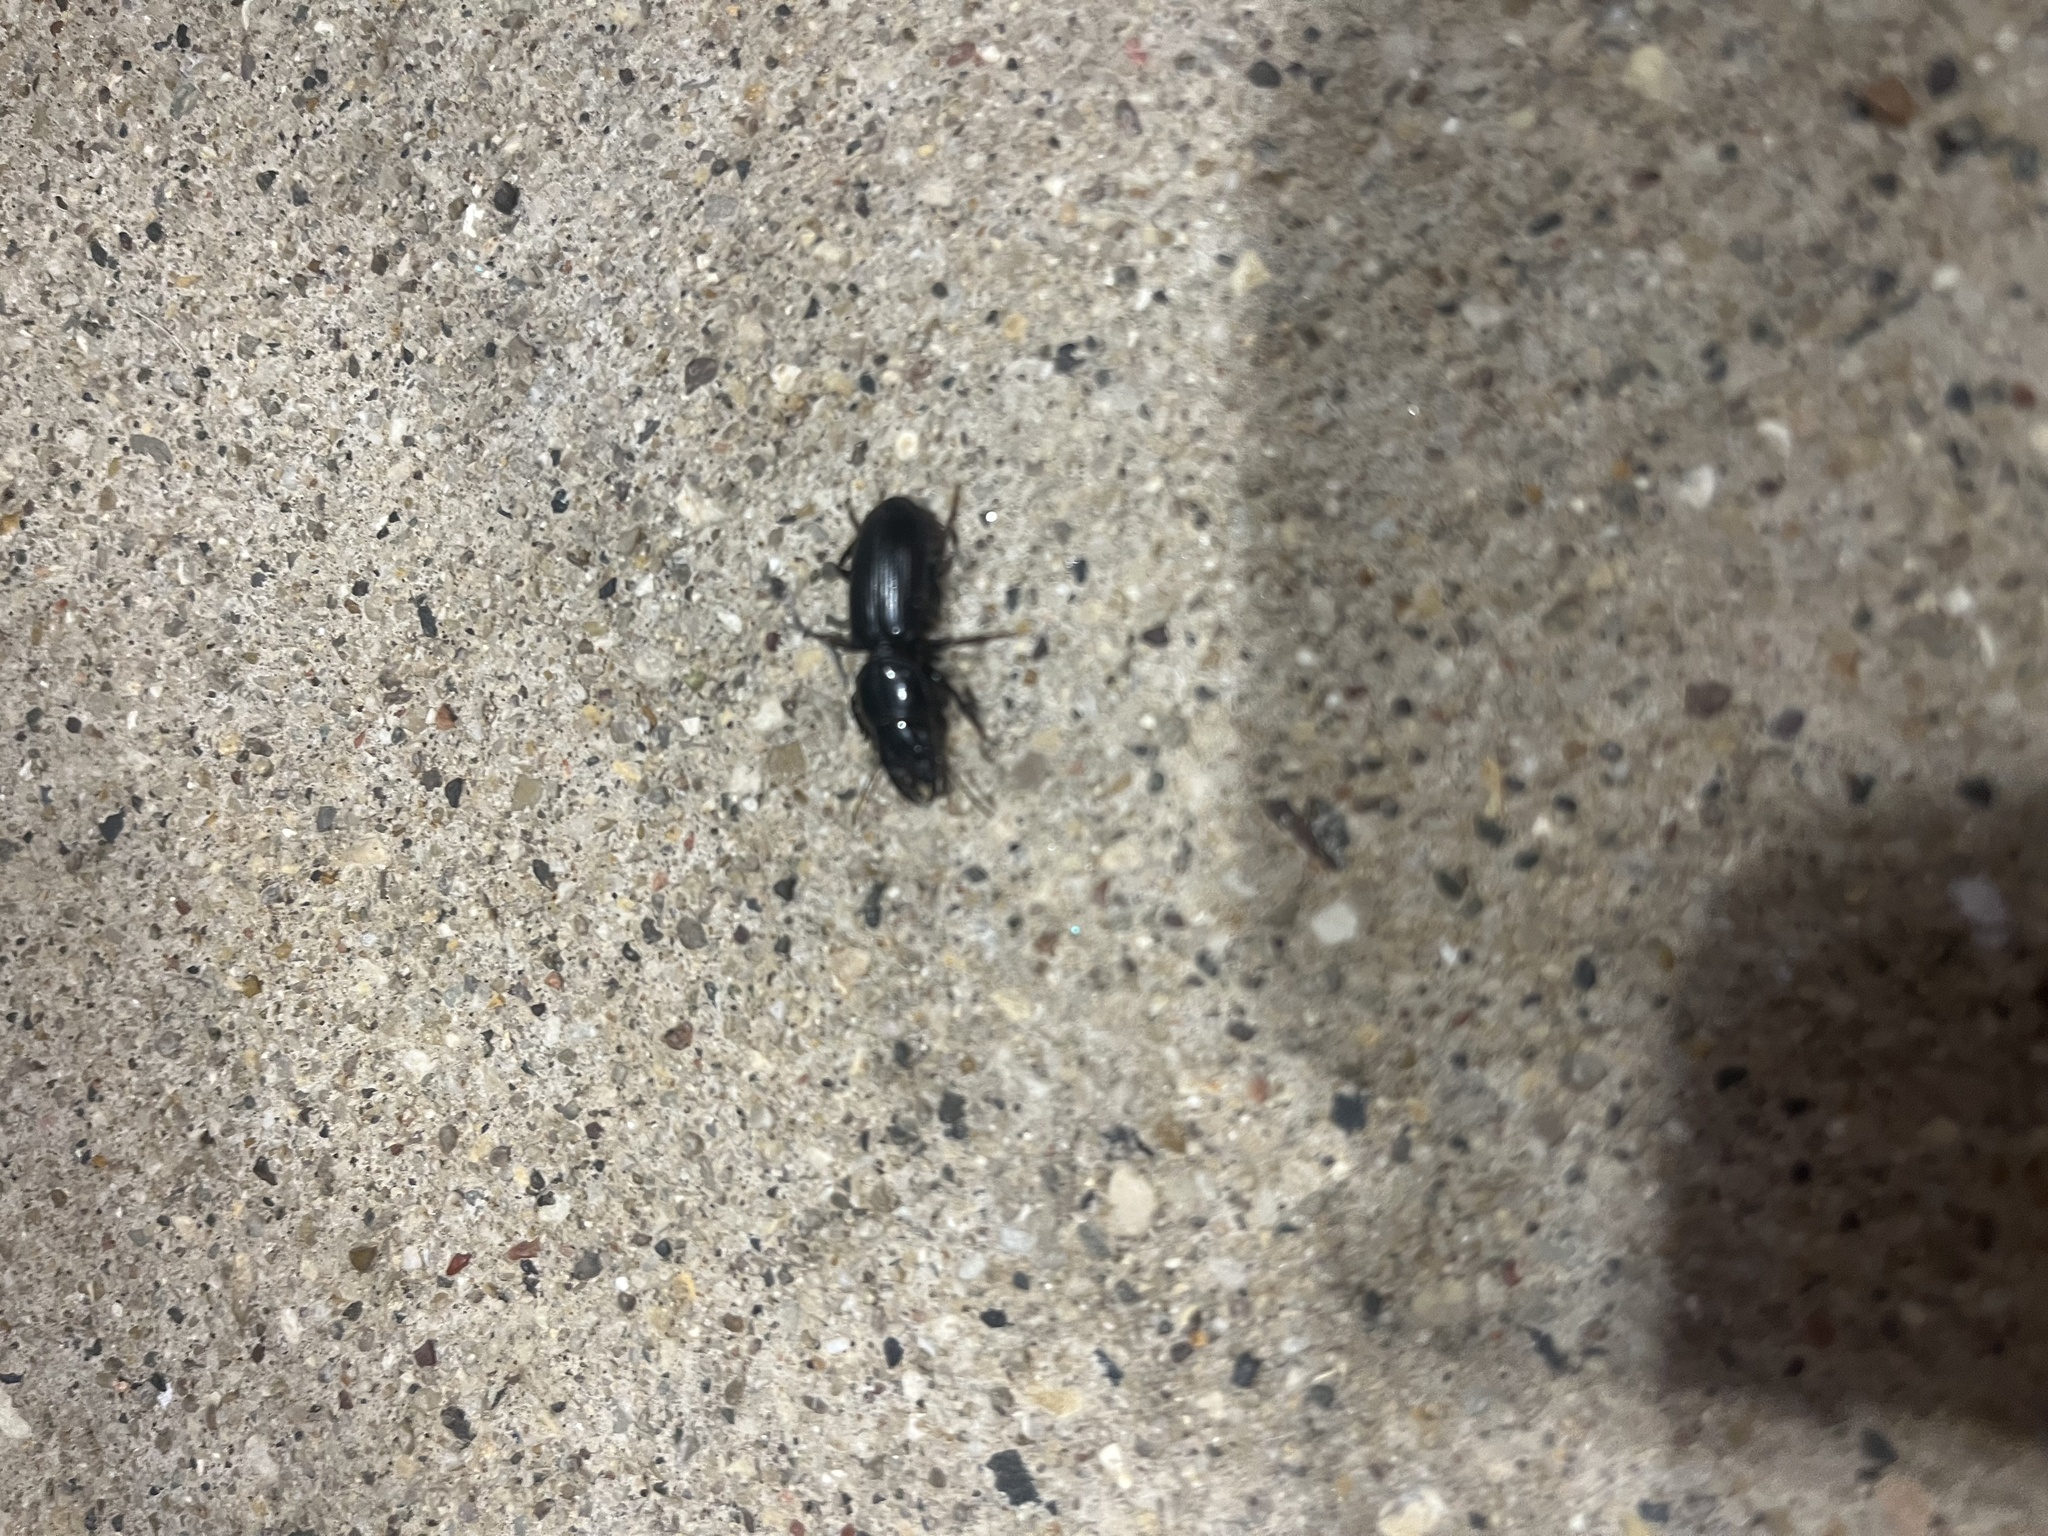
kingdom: Animalia
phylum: Arthropoda
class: Insecta
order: Coleoptera
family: Carabidae
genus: Scarites
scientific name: Scarites
